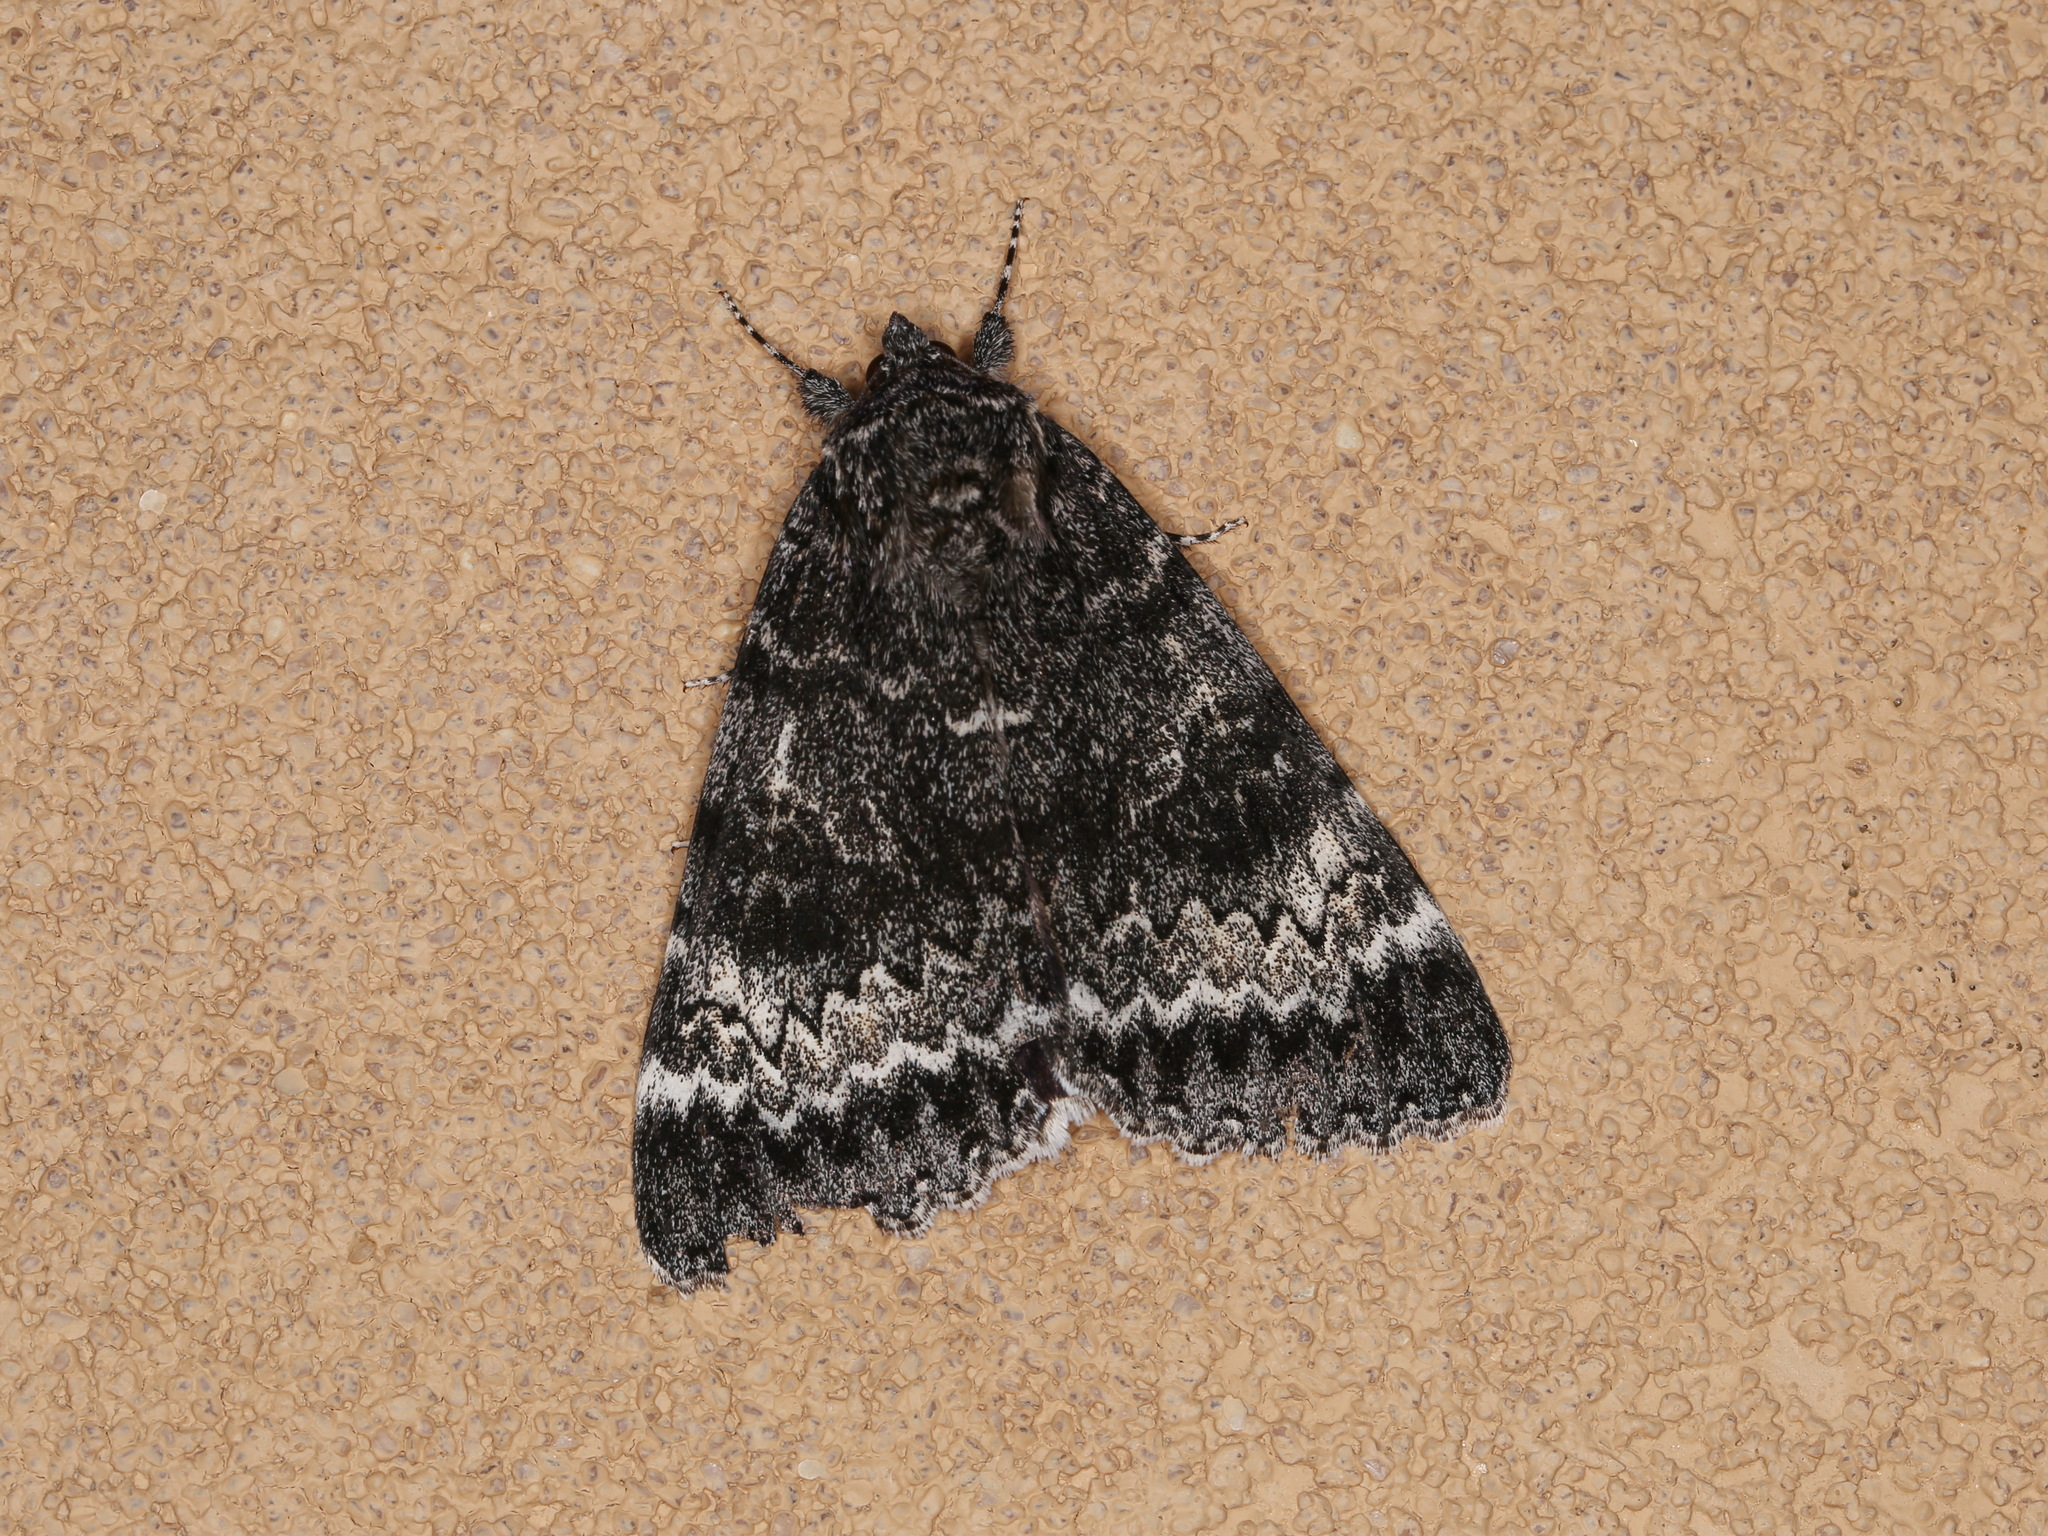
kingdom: Animalia
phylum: Arthropoda
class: Insecta
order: Lepidoptera
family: Erebidae
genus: Catocala
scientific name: Catocala grotiana
